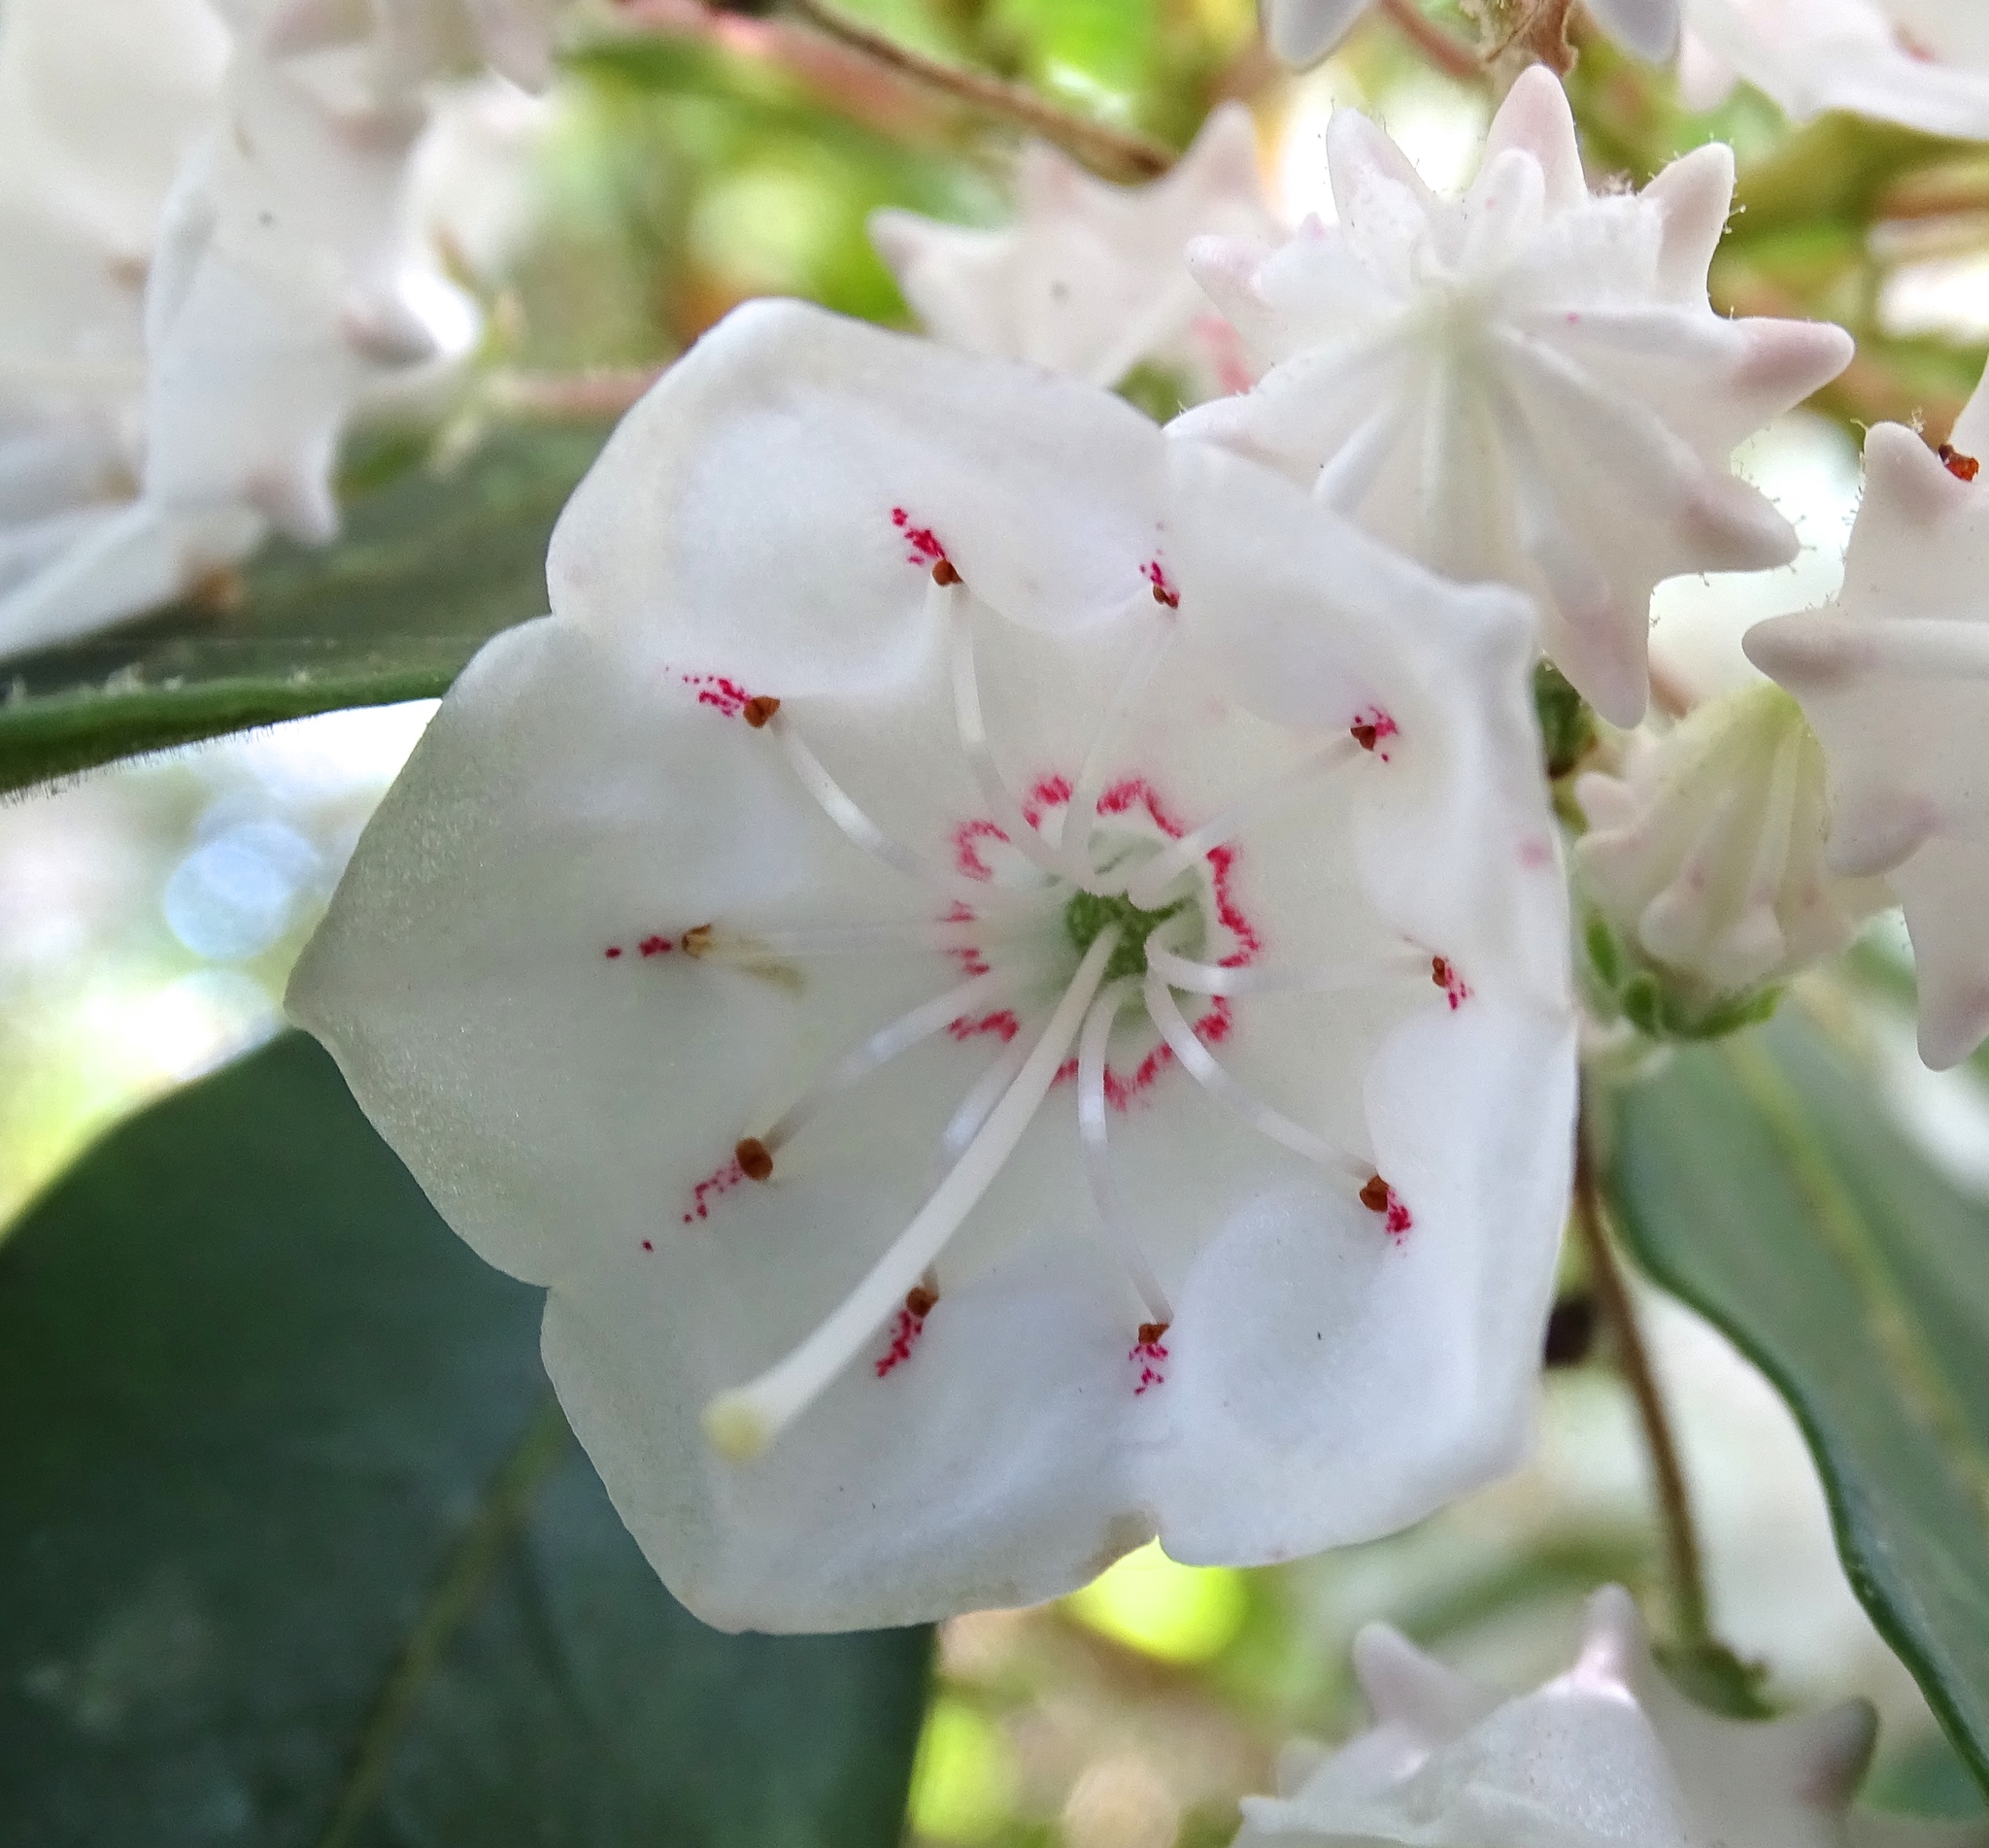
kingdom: Plantae
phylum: Tracheophyta
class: Magnoliopsida
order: Ericales
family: Ericaceae
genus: Kalmia
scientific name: Kalmia latifolia
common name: Mountain-laurel
